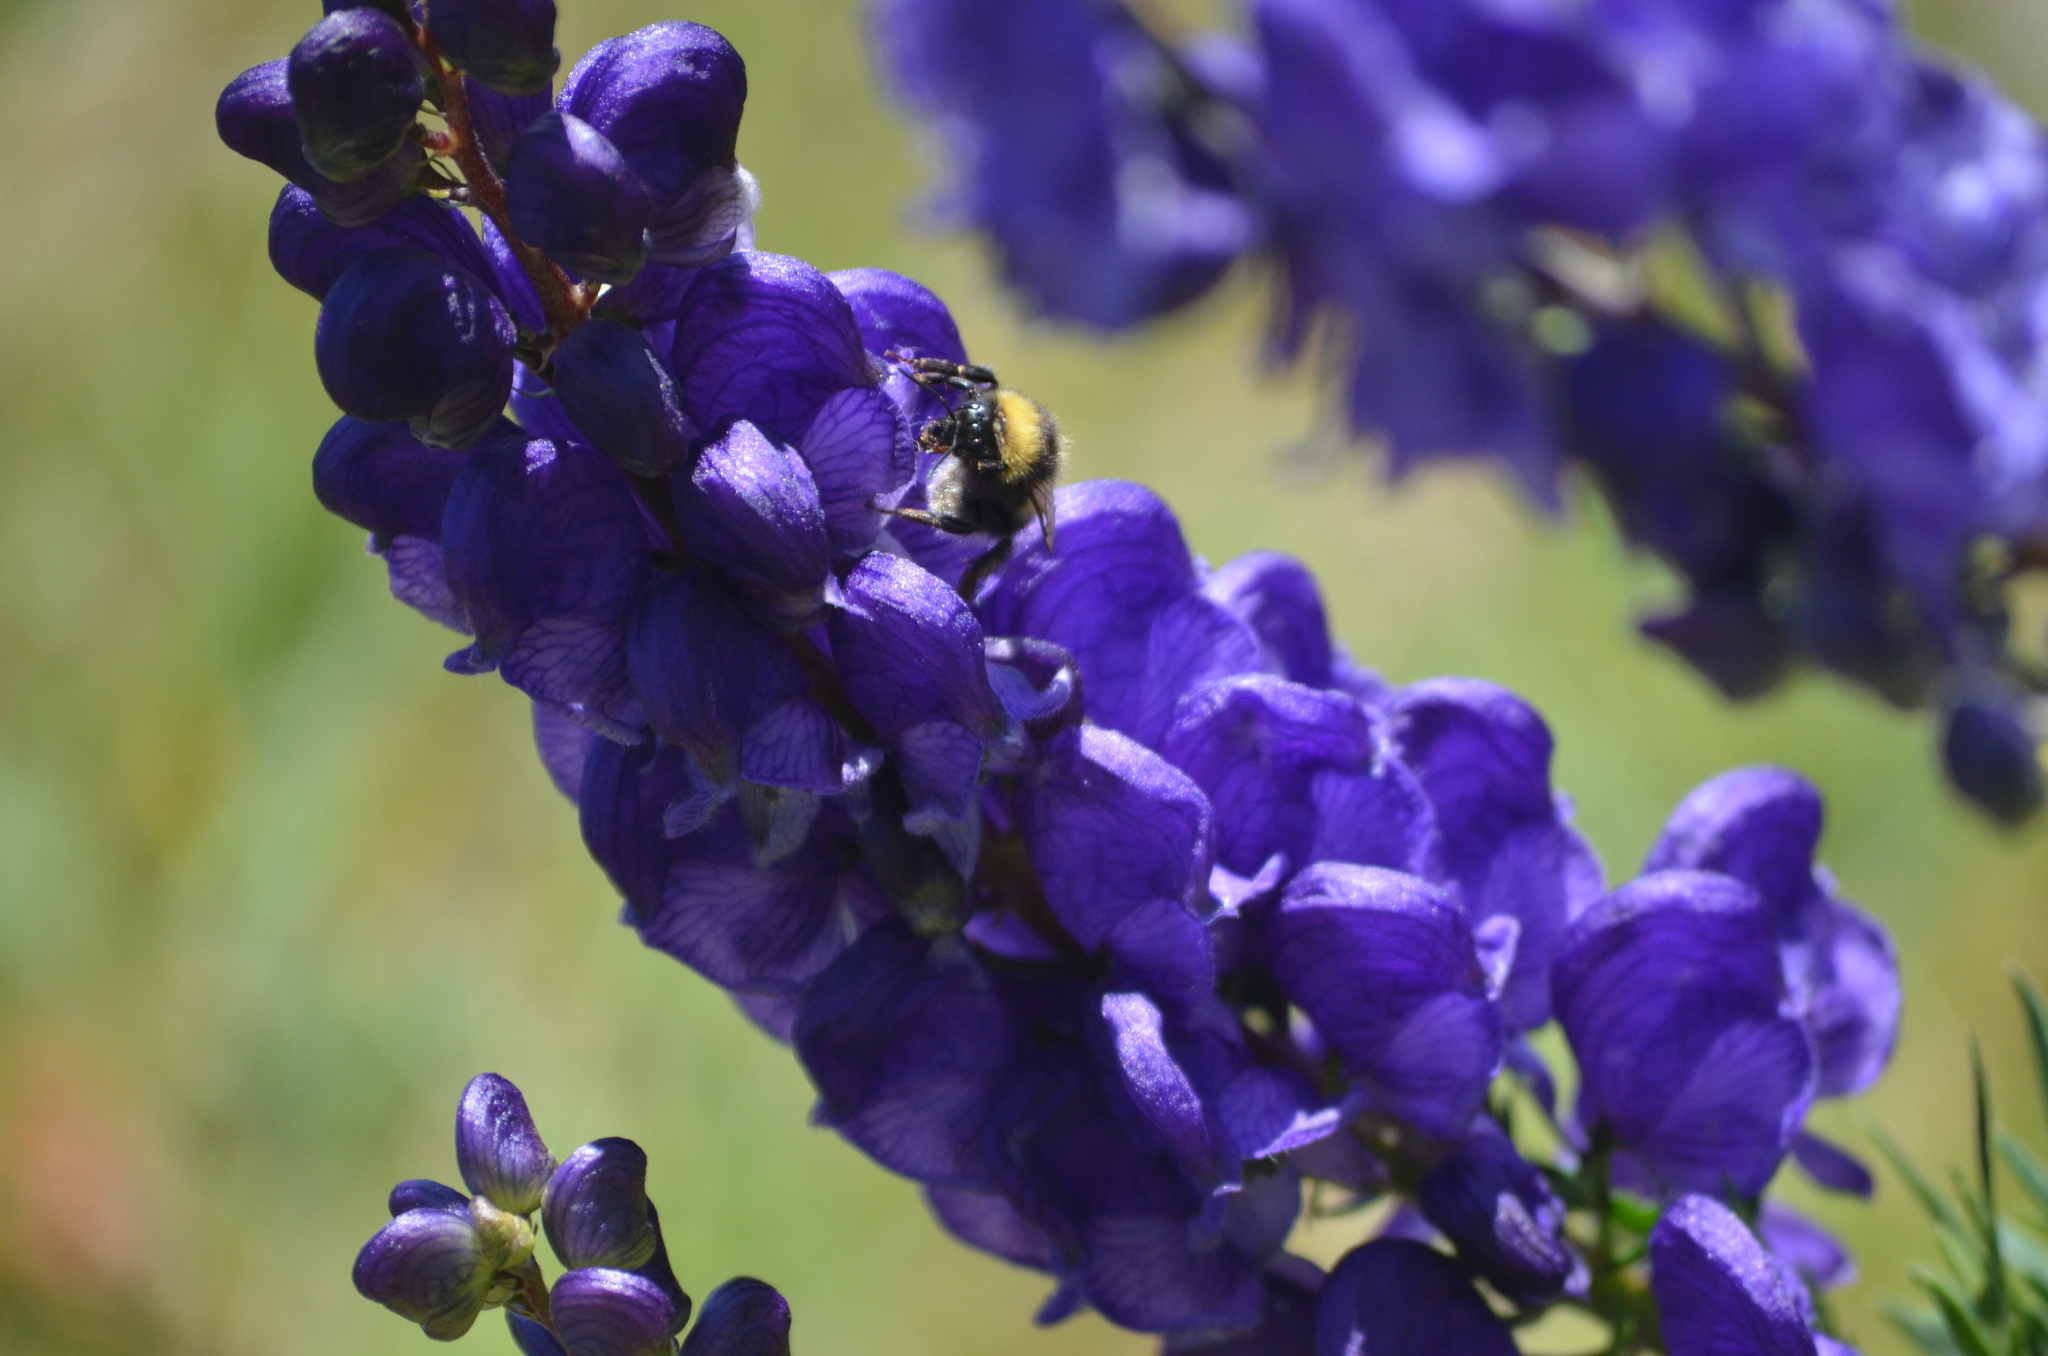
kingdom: Plantae
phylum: Tracheophyta
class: Magnoliopsida
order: Ranunculales
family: Ranunculaceae
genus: Aconitum
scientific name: Aconitum napellus
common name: Garden monkshood
